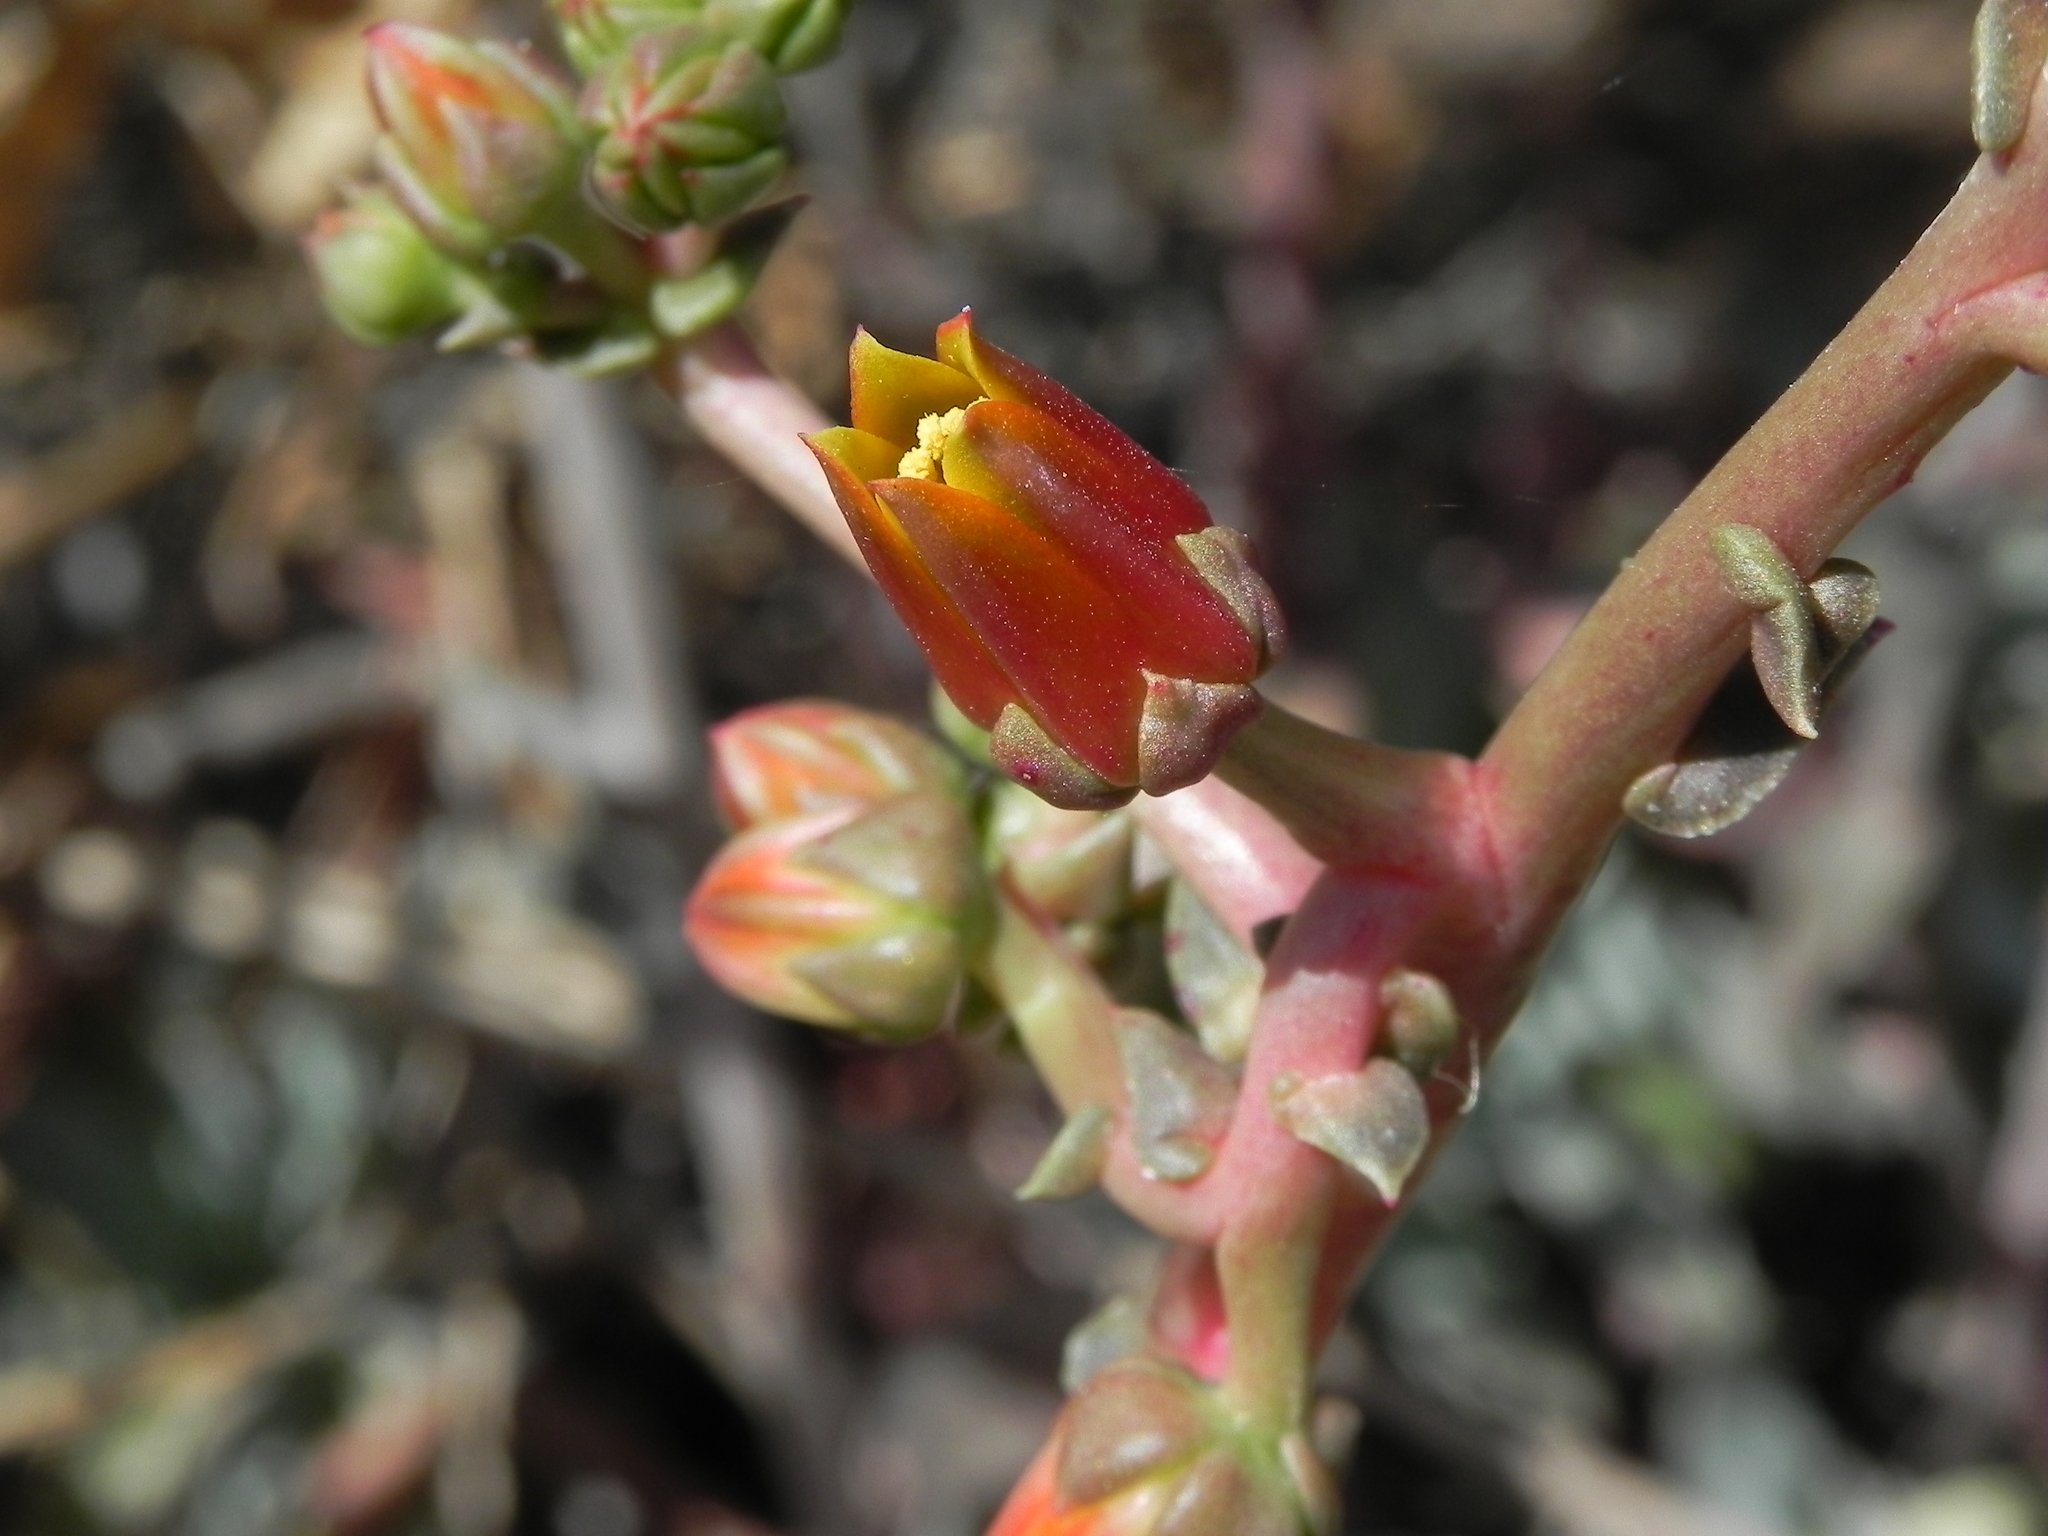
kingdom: Plantae
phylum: Tracheophyta
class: Magnoliopsida
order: Saxifragales
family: Crassulaceae
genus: Dudleya
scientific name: Dudleya lanceolata
